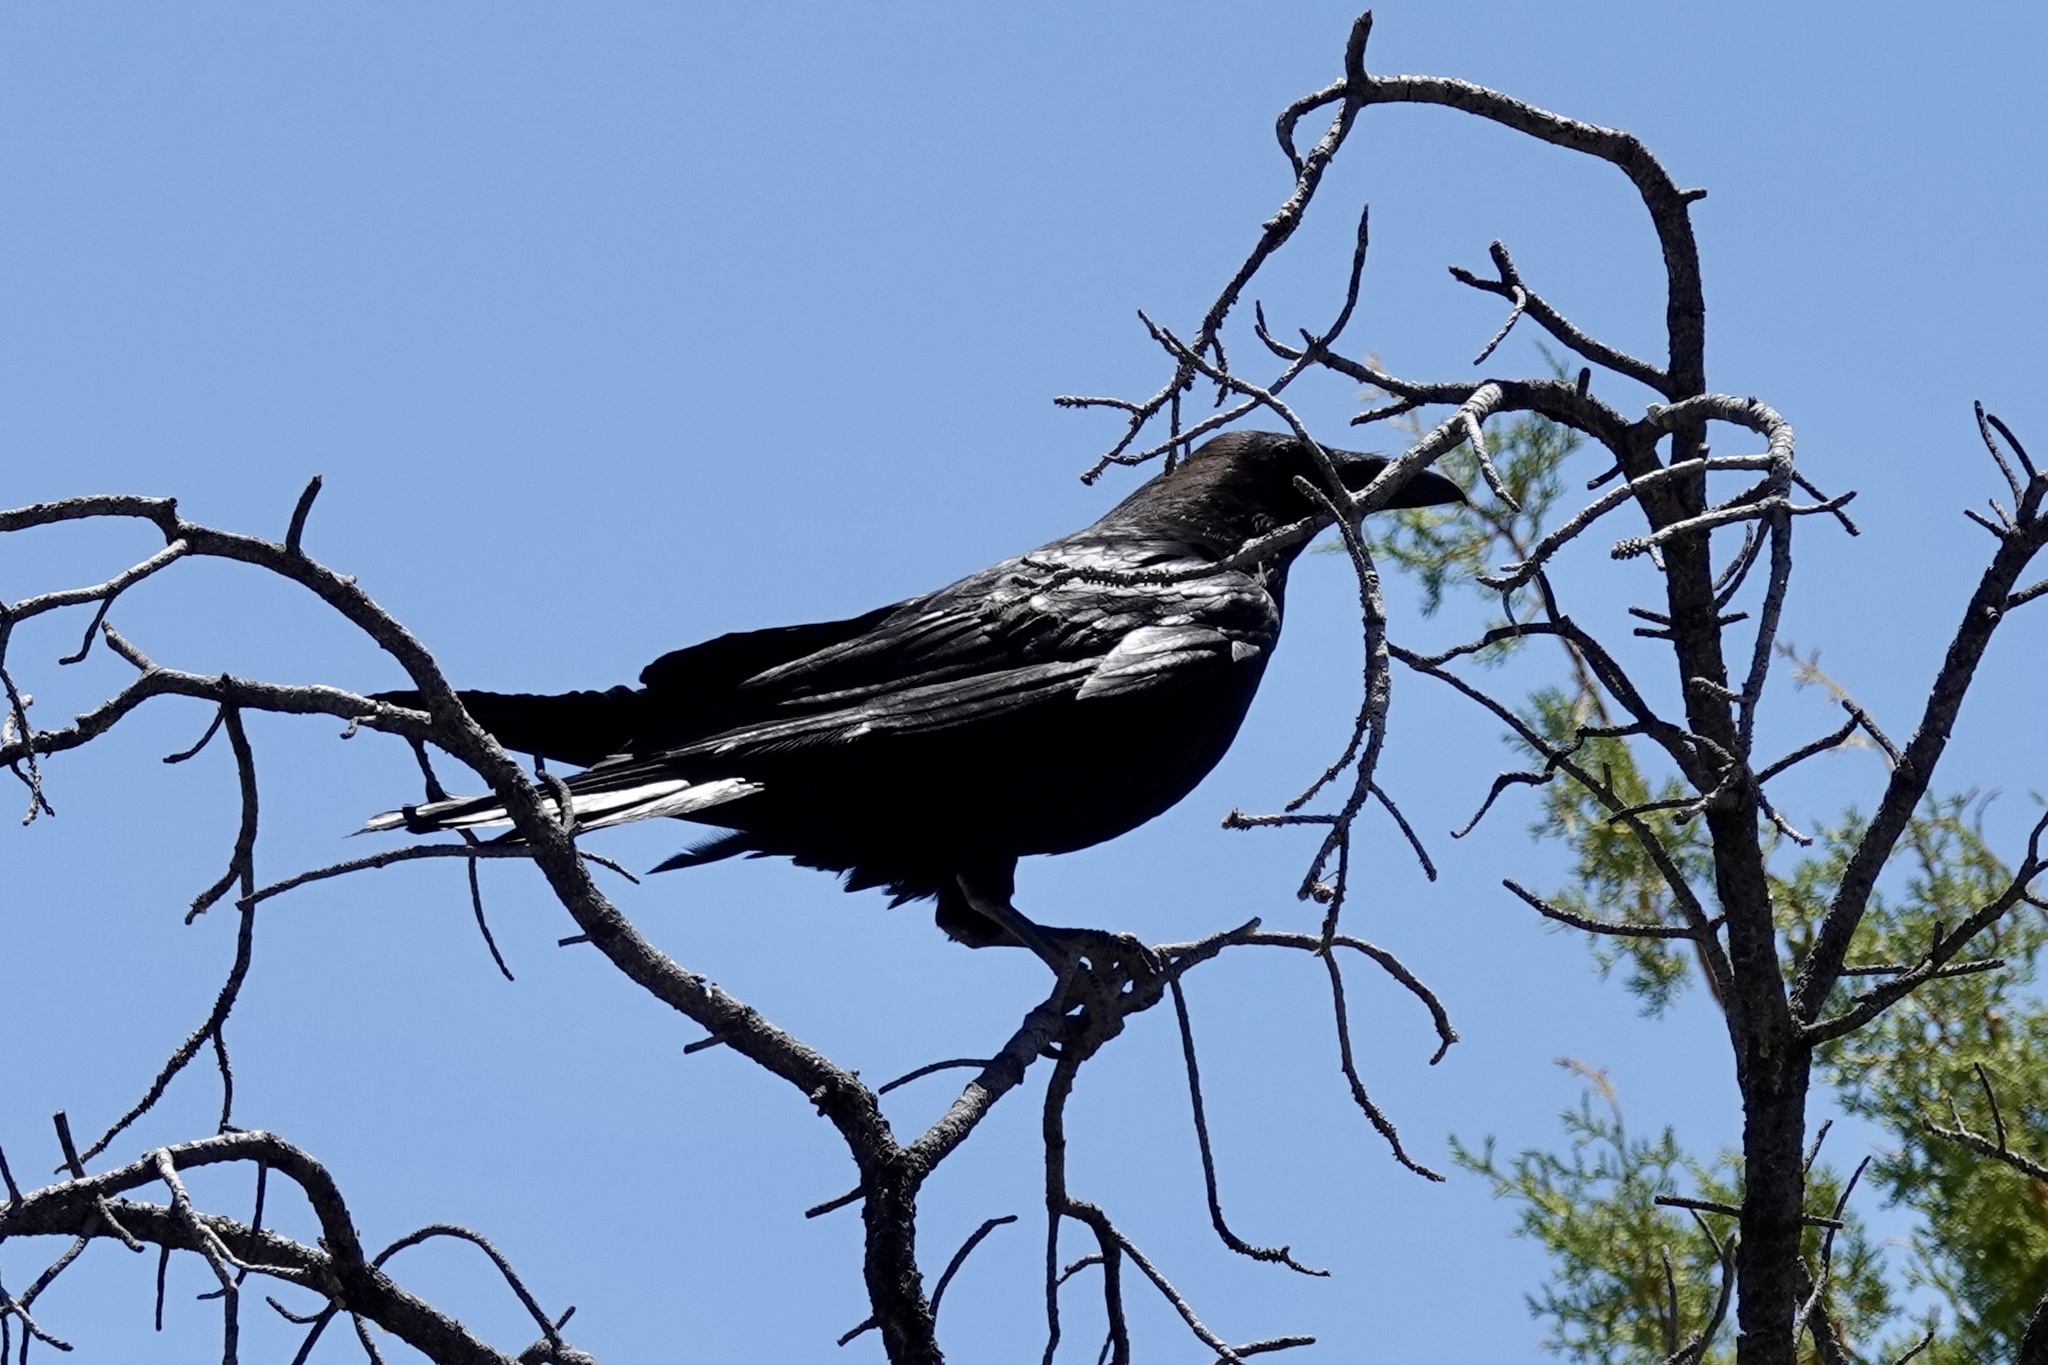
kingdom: Animalia
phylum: Chordata
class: Aves
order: Passeriformes
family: Corvidae
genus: Corvus
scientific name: Corvus corax
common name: Common raven
